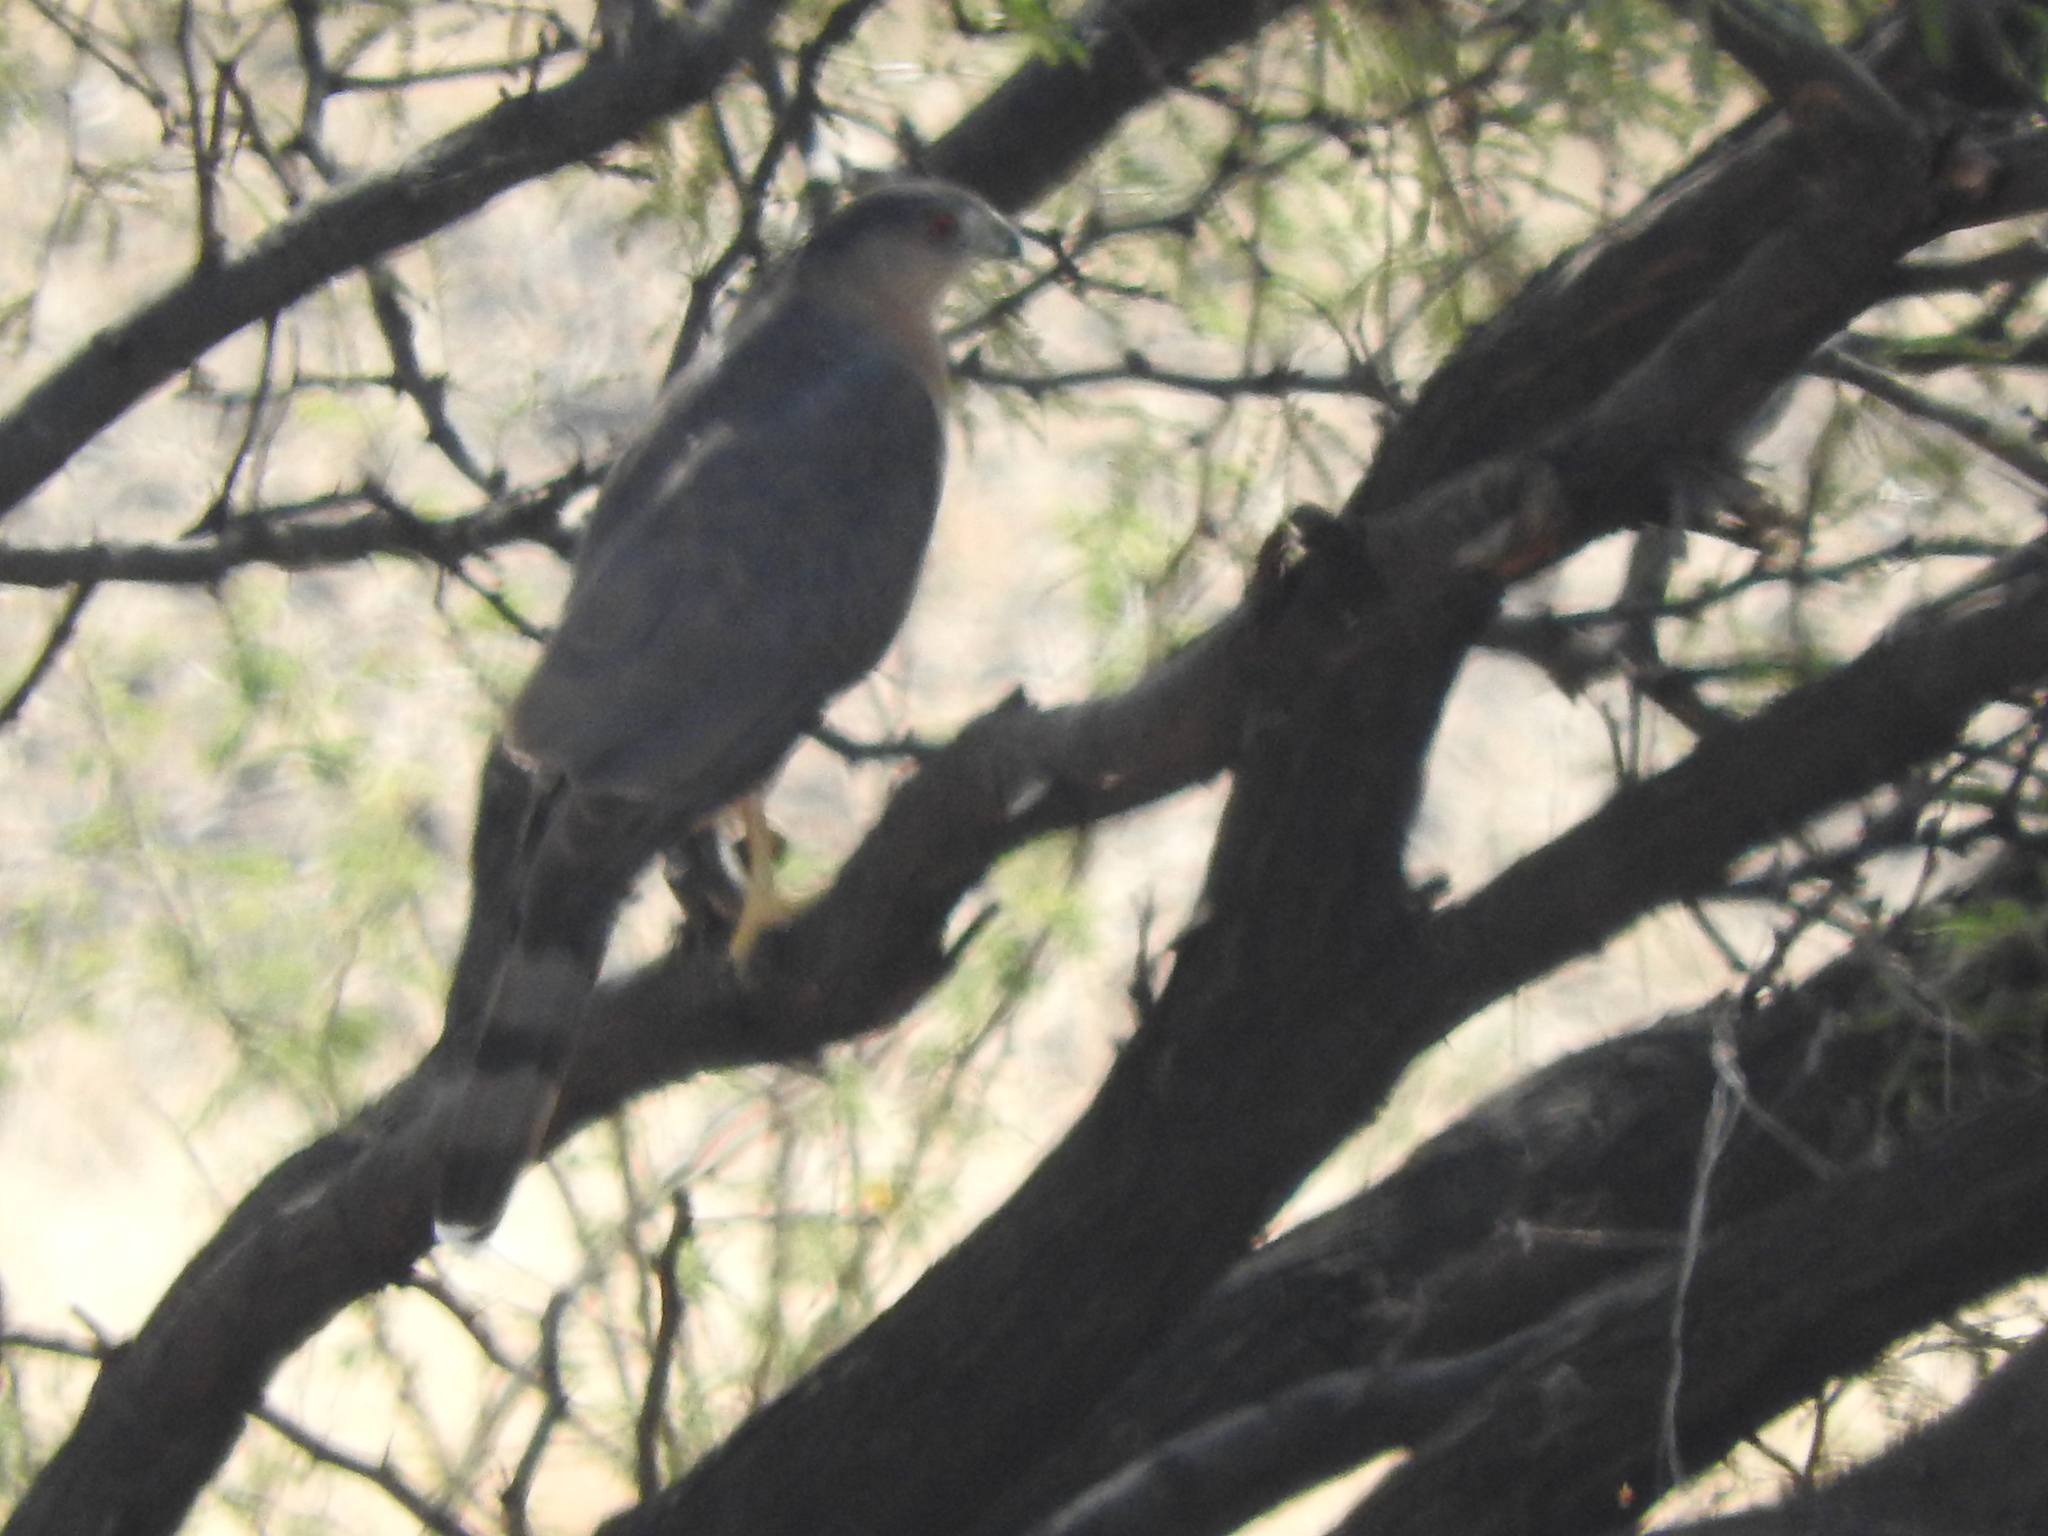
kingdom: Animalia
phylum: Chordata
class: Aves
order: Accipitriformes
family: Accipitridae
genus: Accipiter
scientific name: Accipiter cooperii
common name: Cooper's hawk
